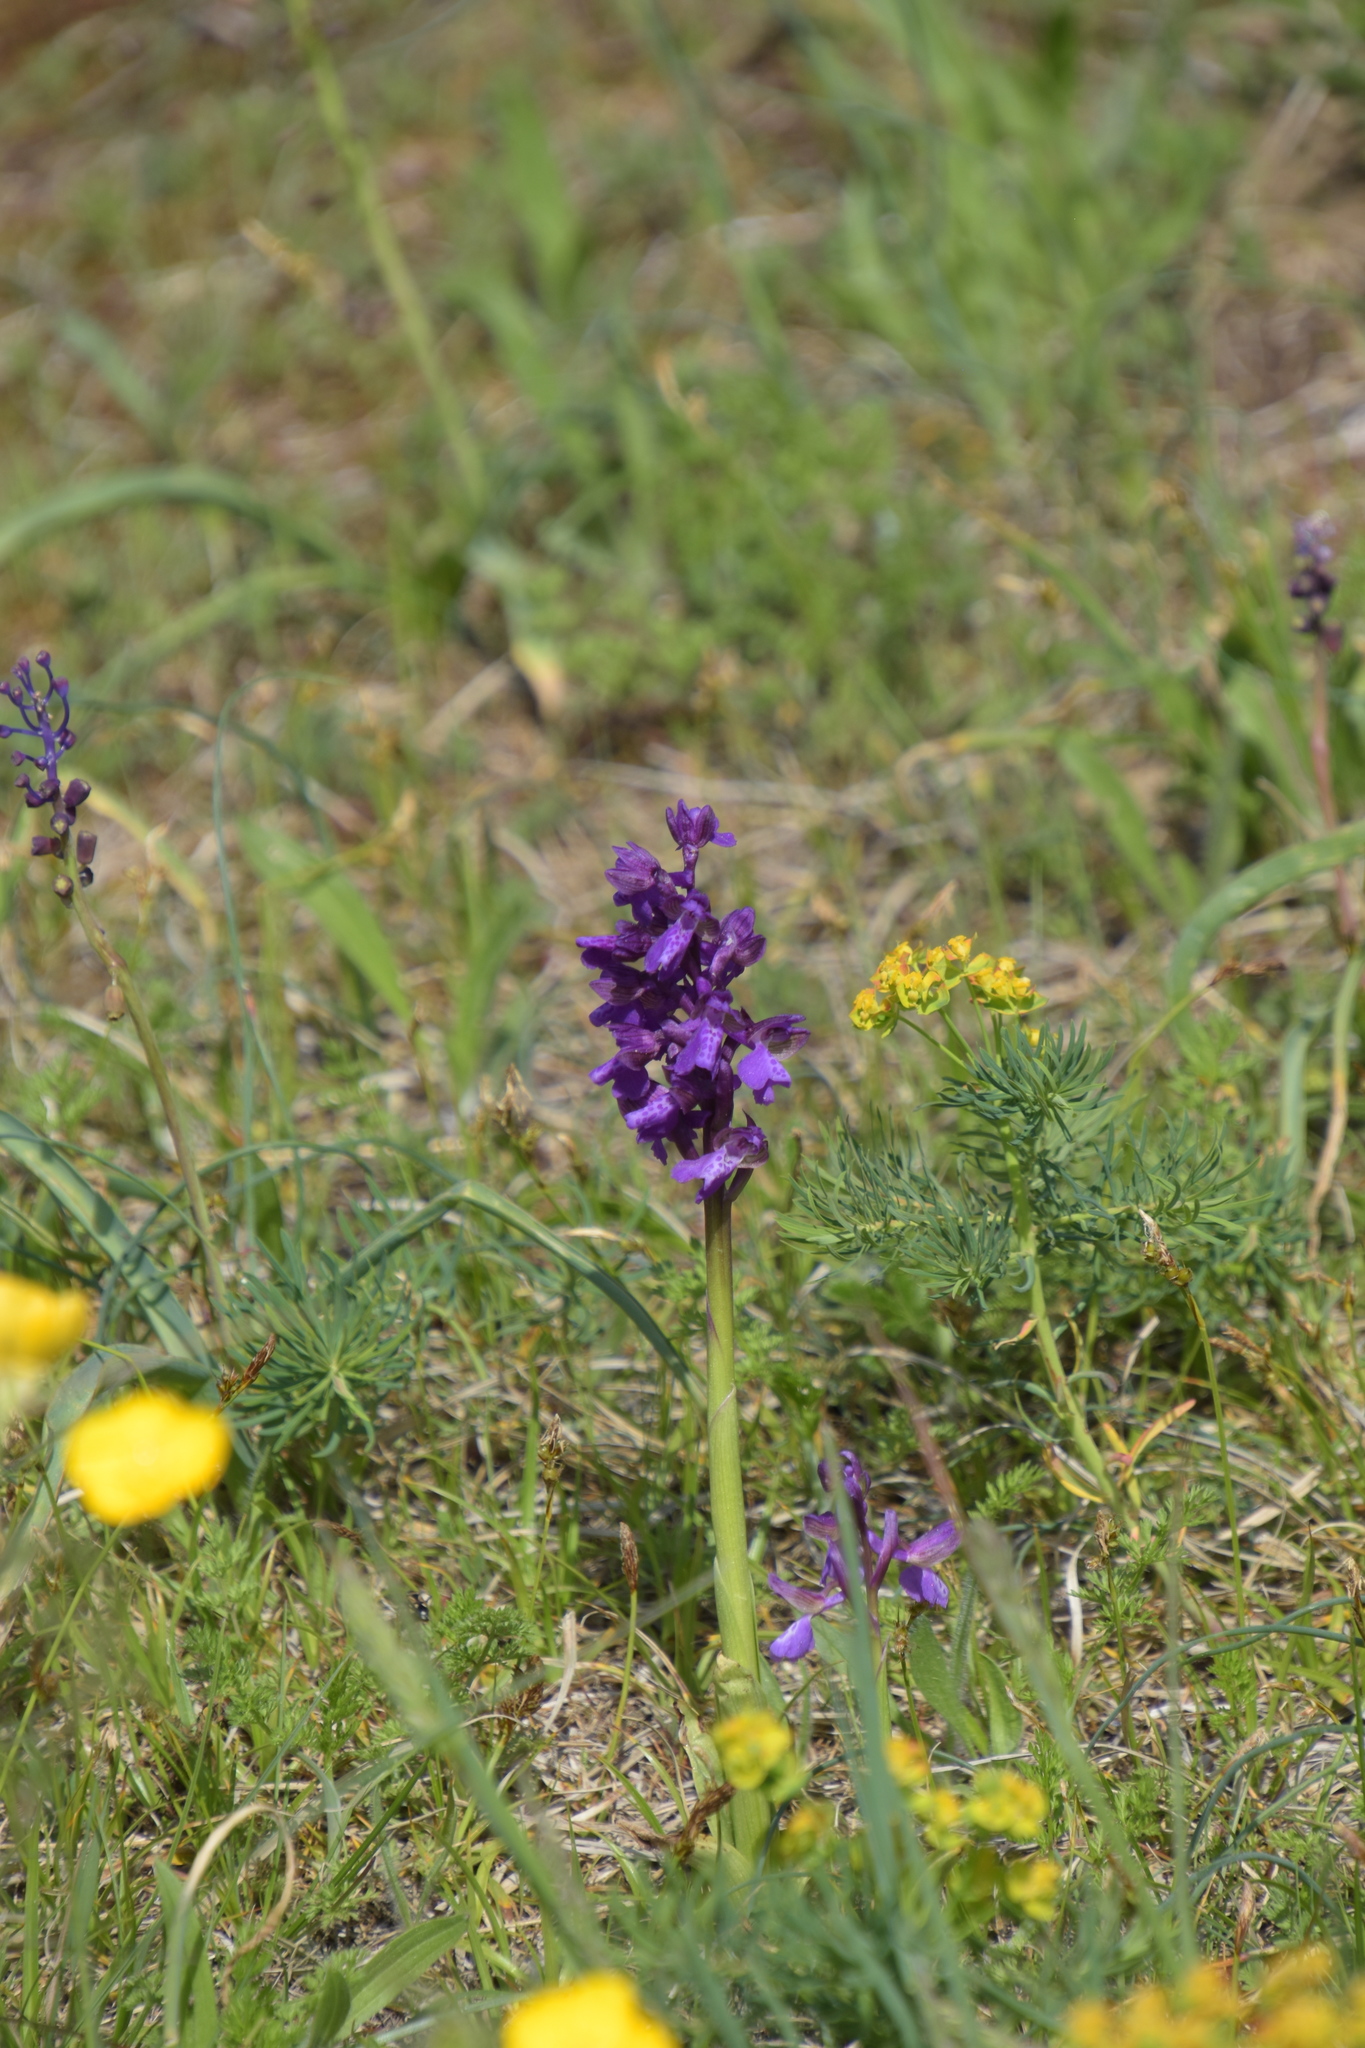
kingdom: Plantae
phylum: Tracheophyta
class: Liliopsida
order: Asparagales
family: Orchidaceae
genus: Anacamptis
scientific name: Anacamptis morio
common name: Green-winged orchid
